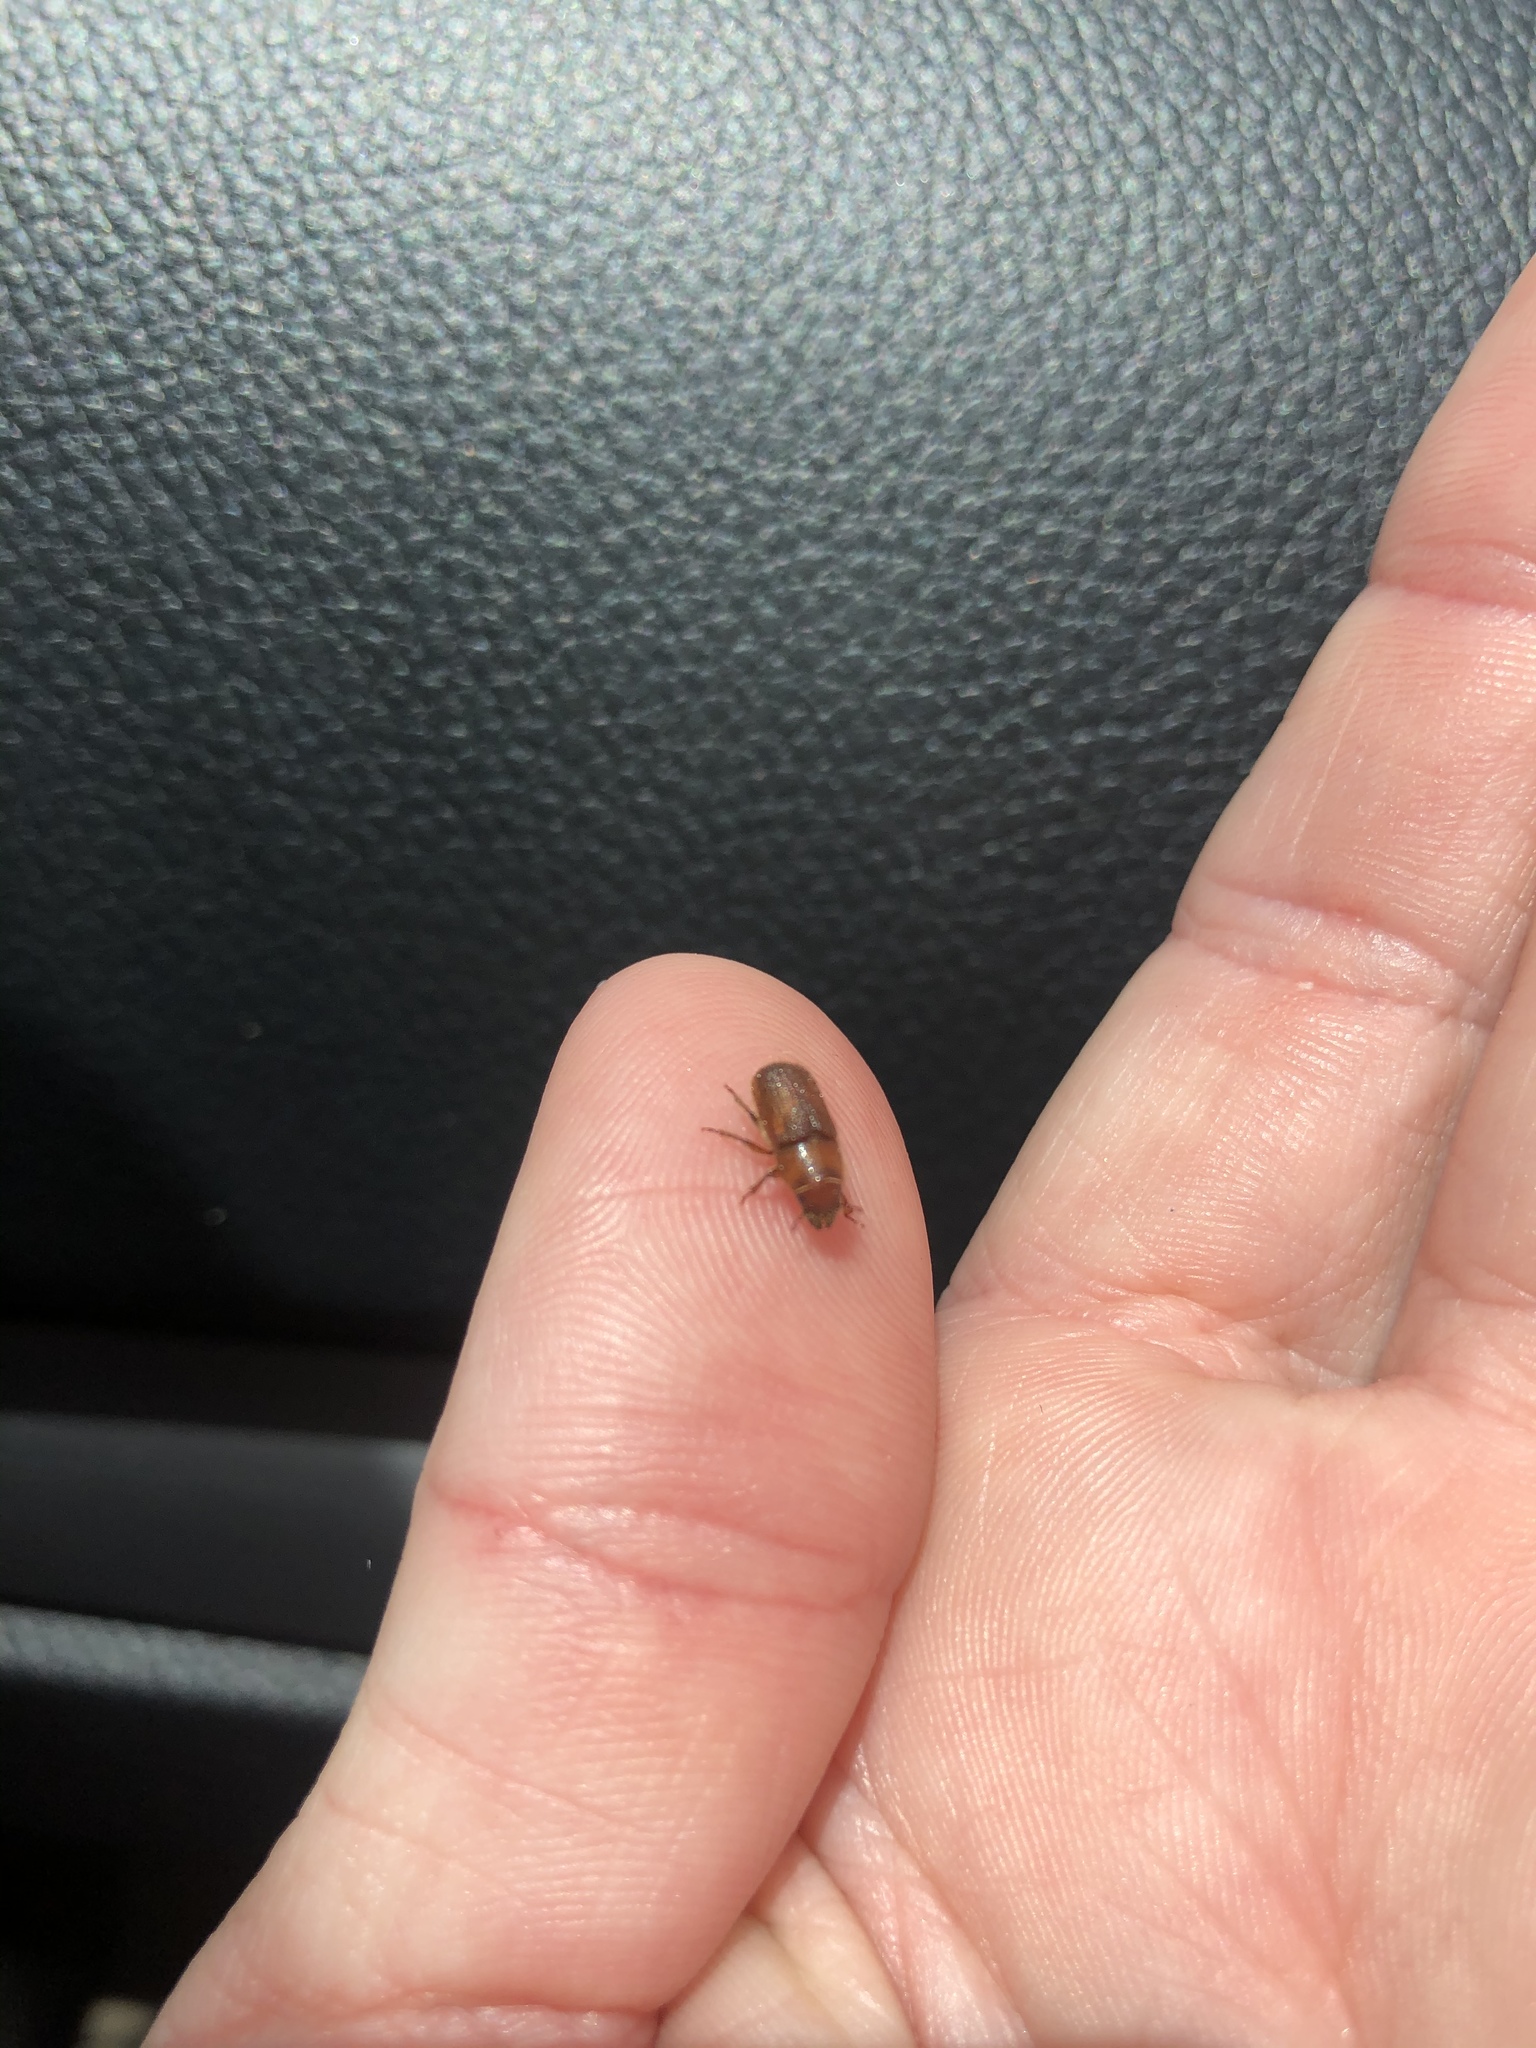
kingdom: Animalia
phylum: Arthropoda
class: Insecta
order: Coleoptera
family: Curculionidae
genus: Dendroctonus
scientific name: Dendroctonus valens
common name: Red turpentine beetle
